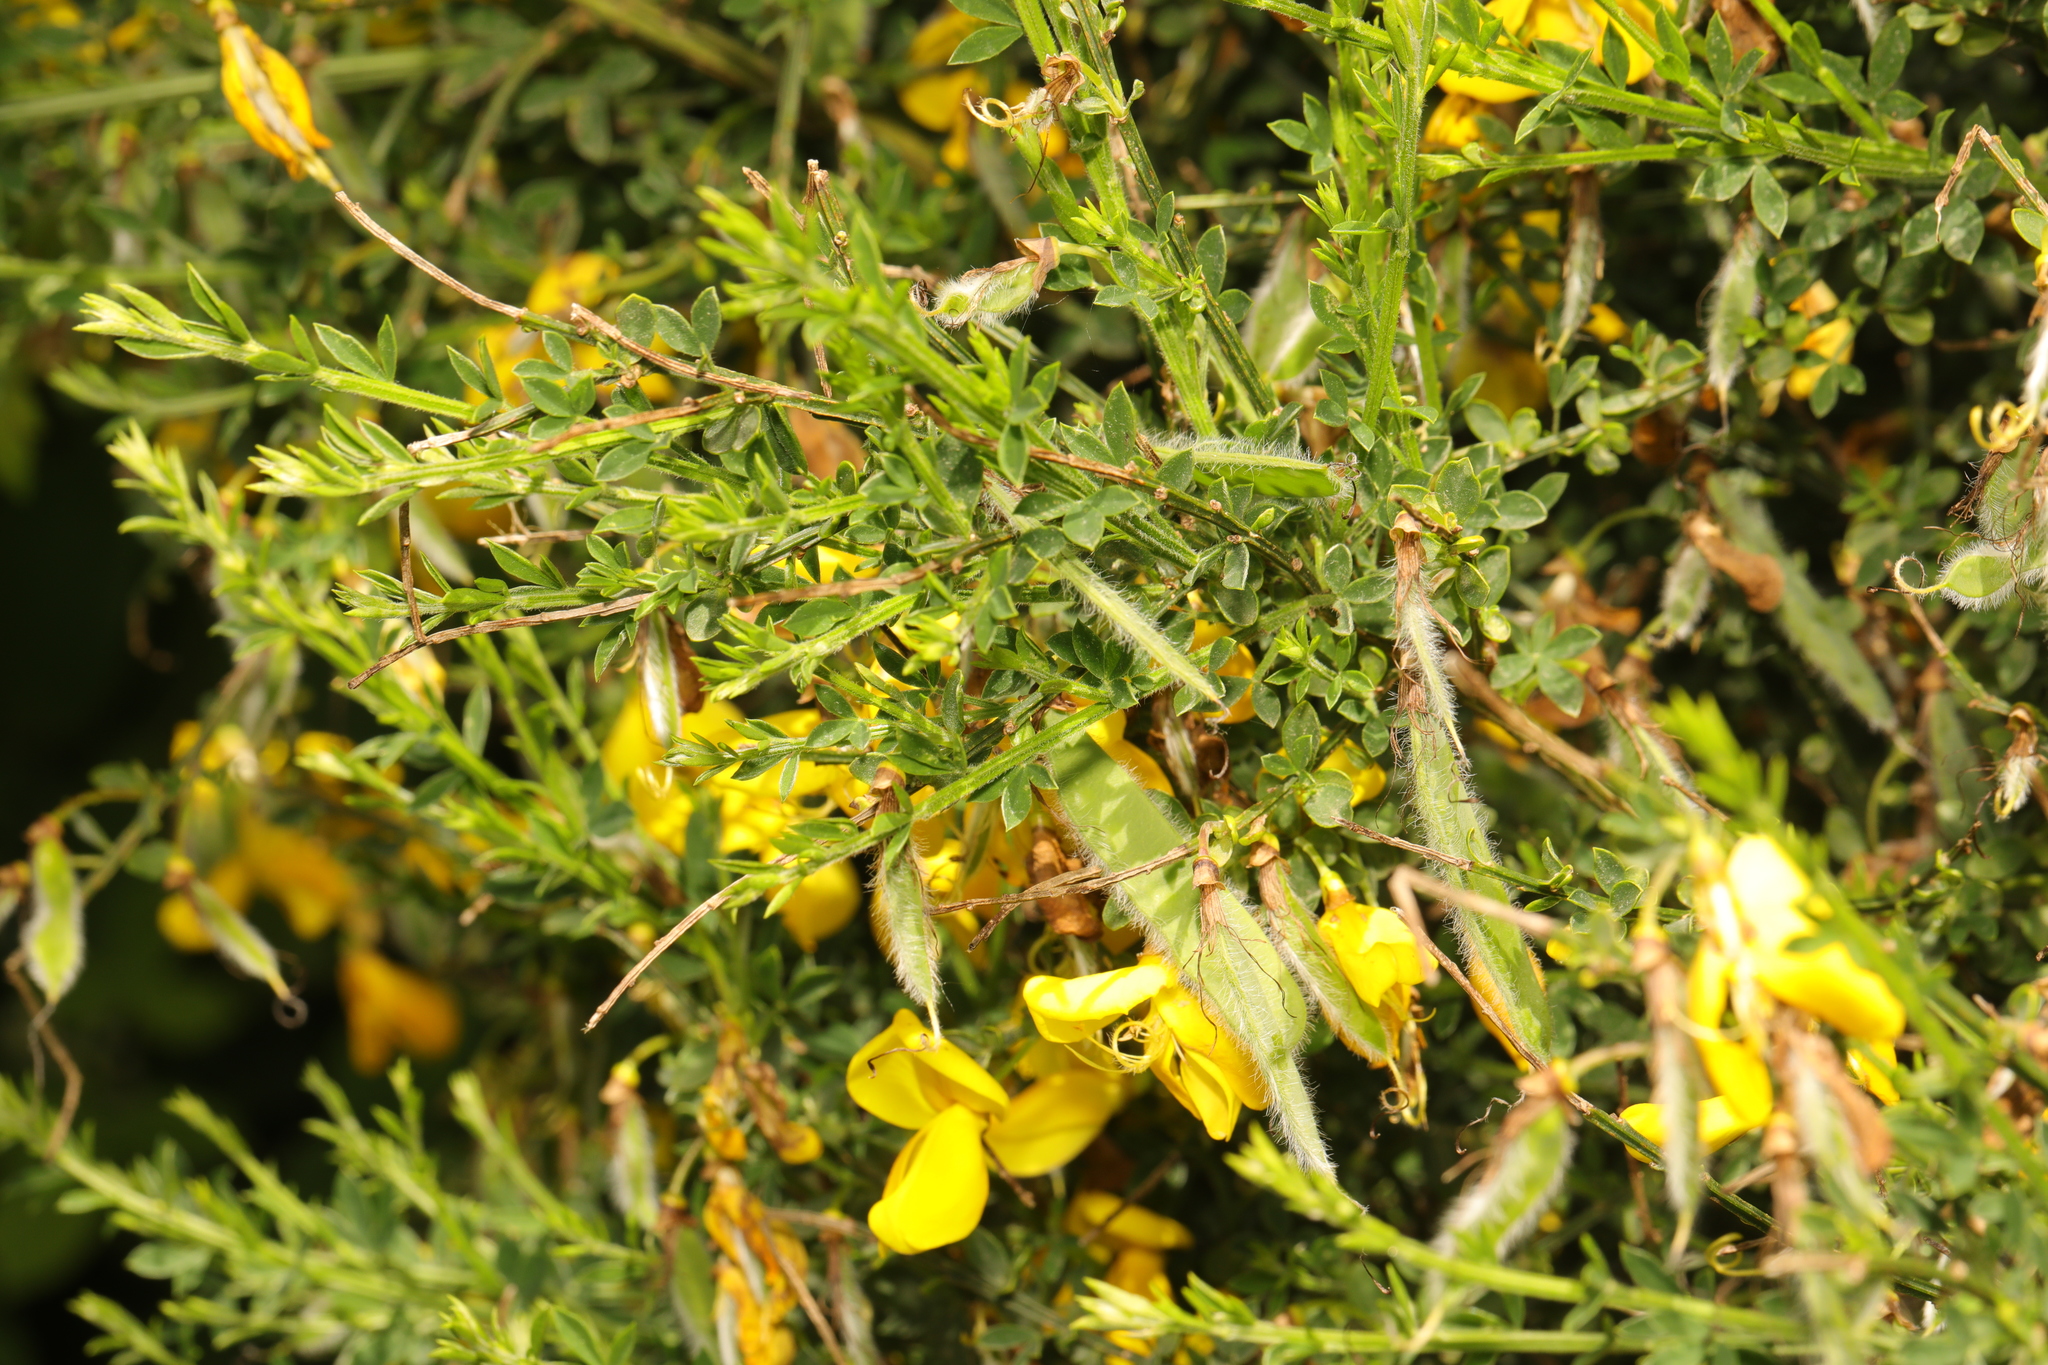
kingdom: Plantae
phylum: Tracheophyta
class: Magnoliopsida
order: Fabales
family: Fabaceae
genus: Cytisus
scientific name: Cytisus scoparius
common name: Scotch broom
